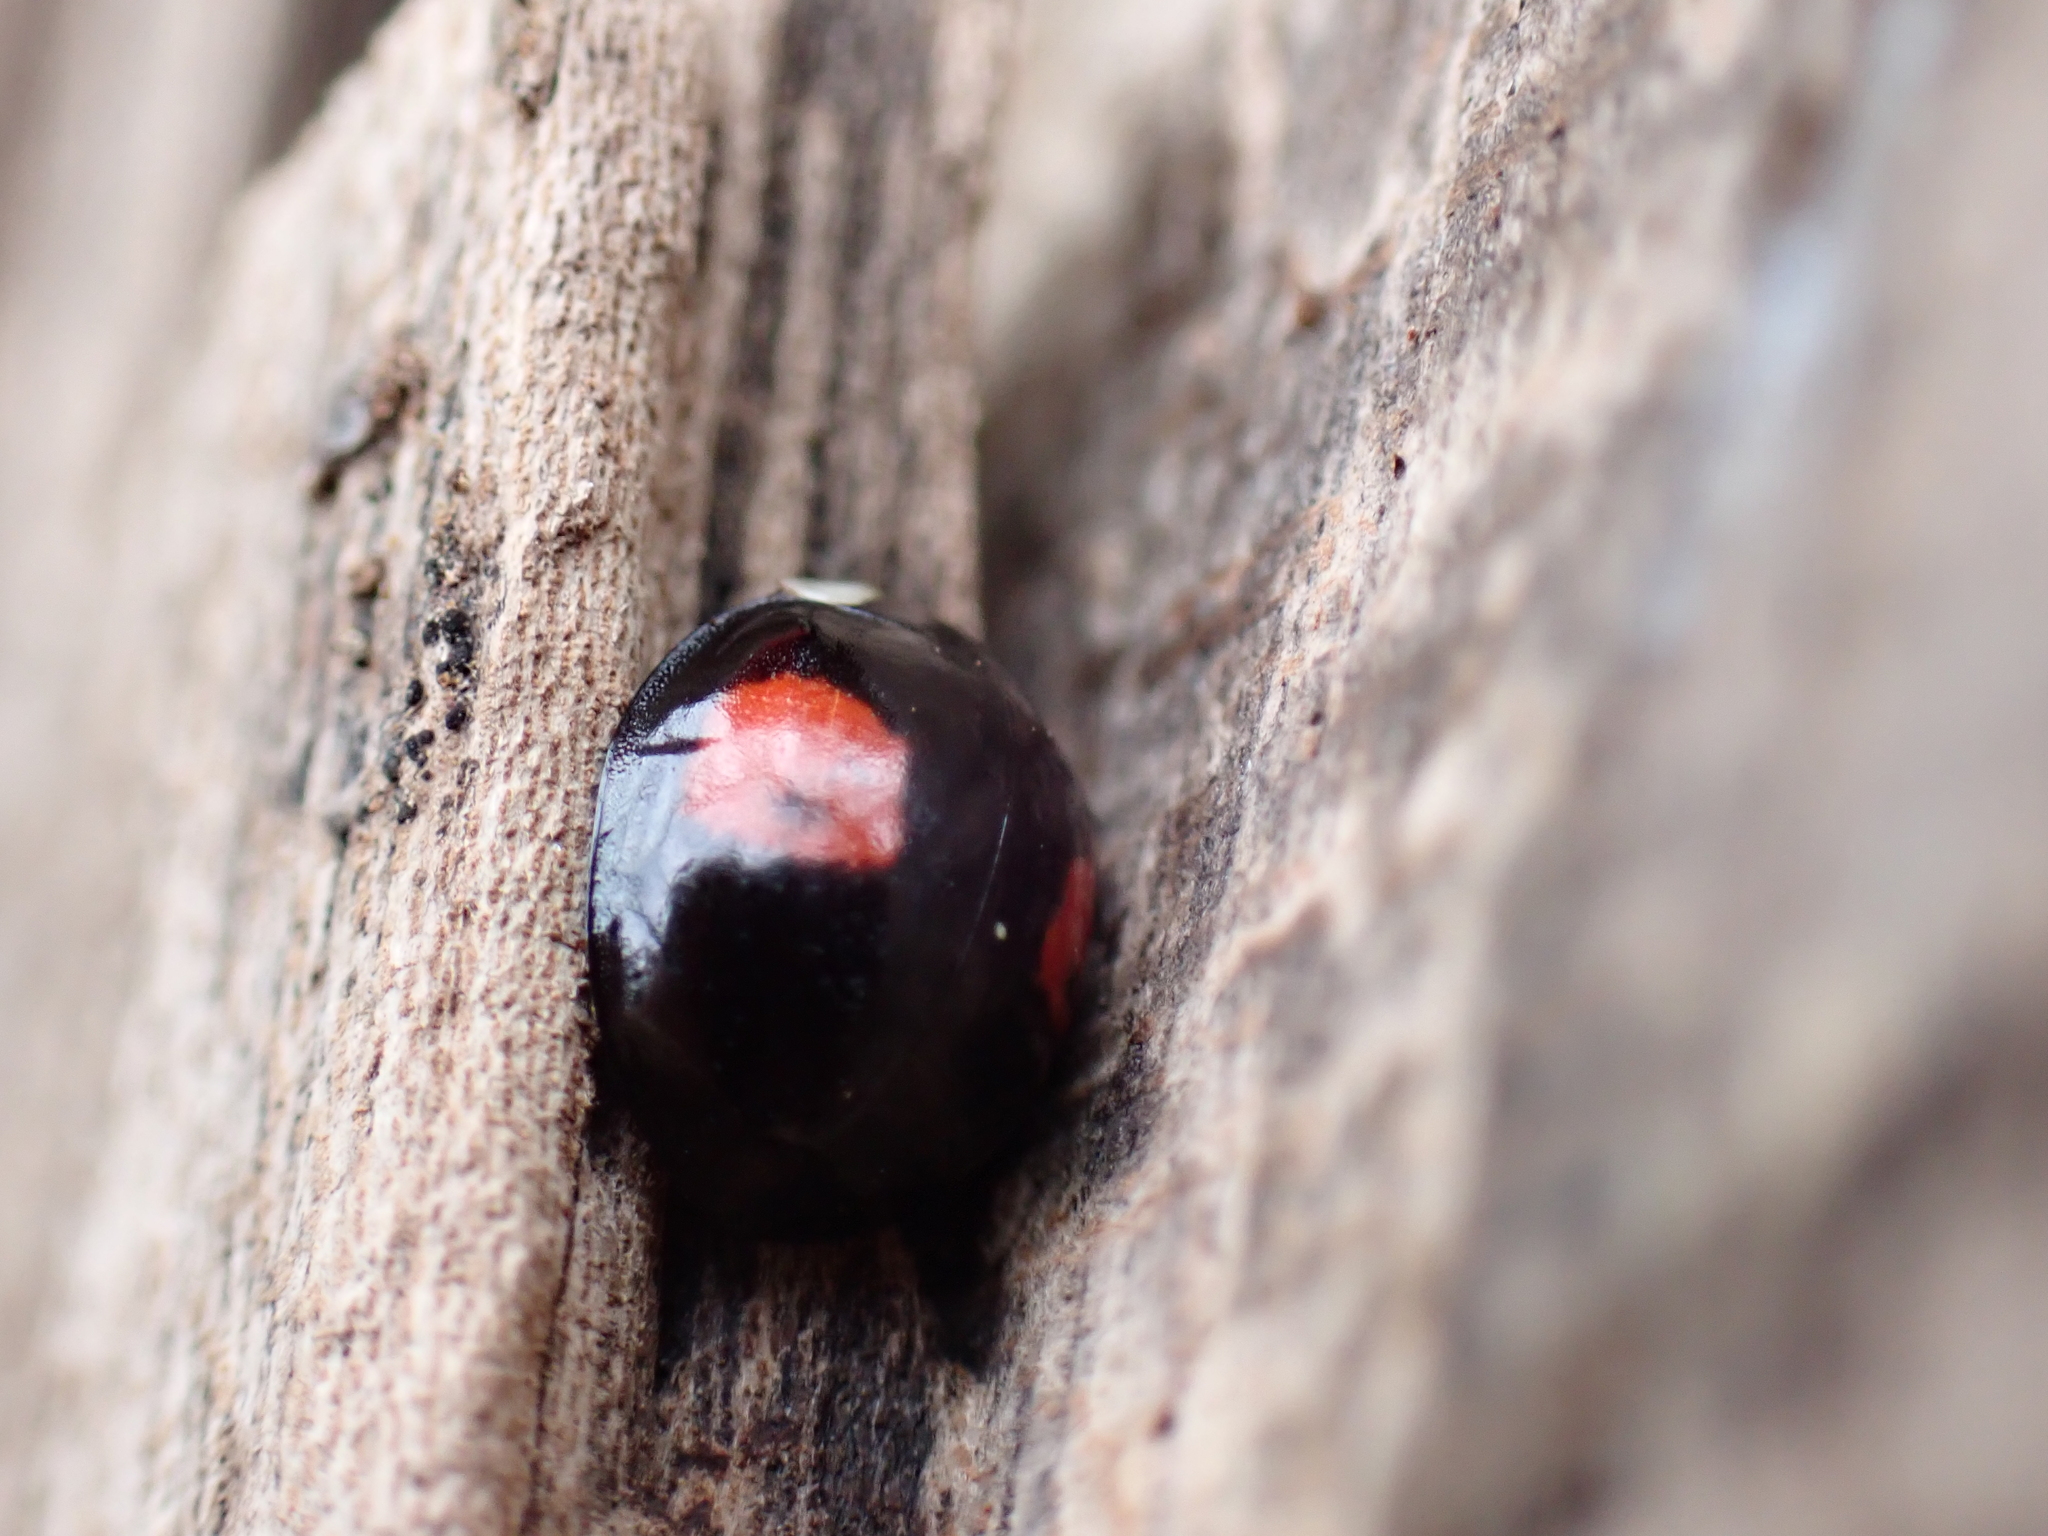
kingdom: Animalia
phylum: Arthropoda
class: Insecta
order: Coleoptera
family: Coccinellidae
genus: Harmonia
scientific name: Harmonia axyridis
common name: Harlequin ladybird
